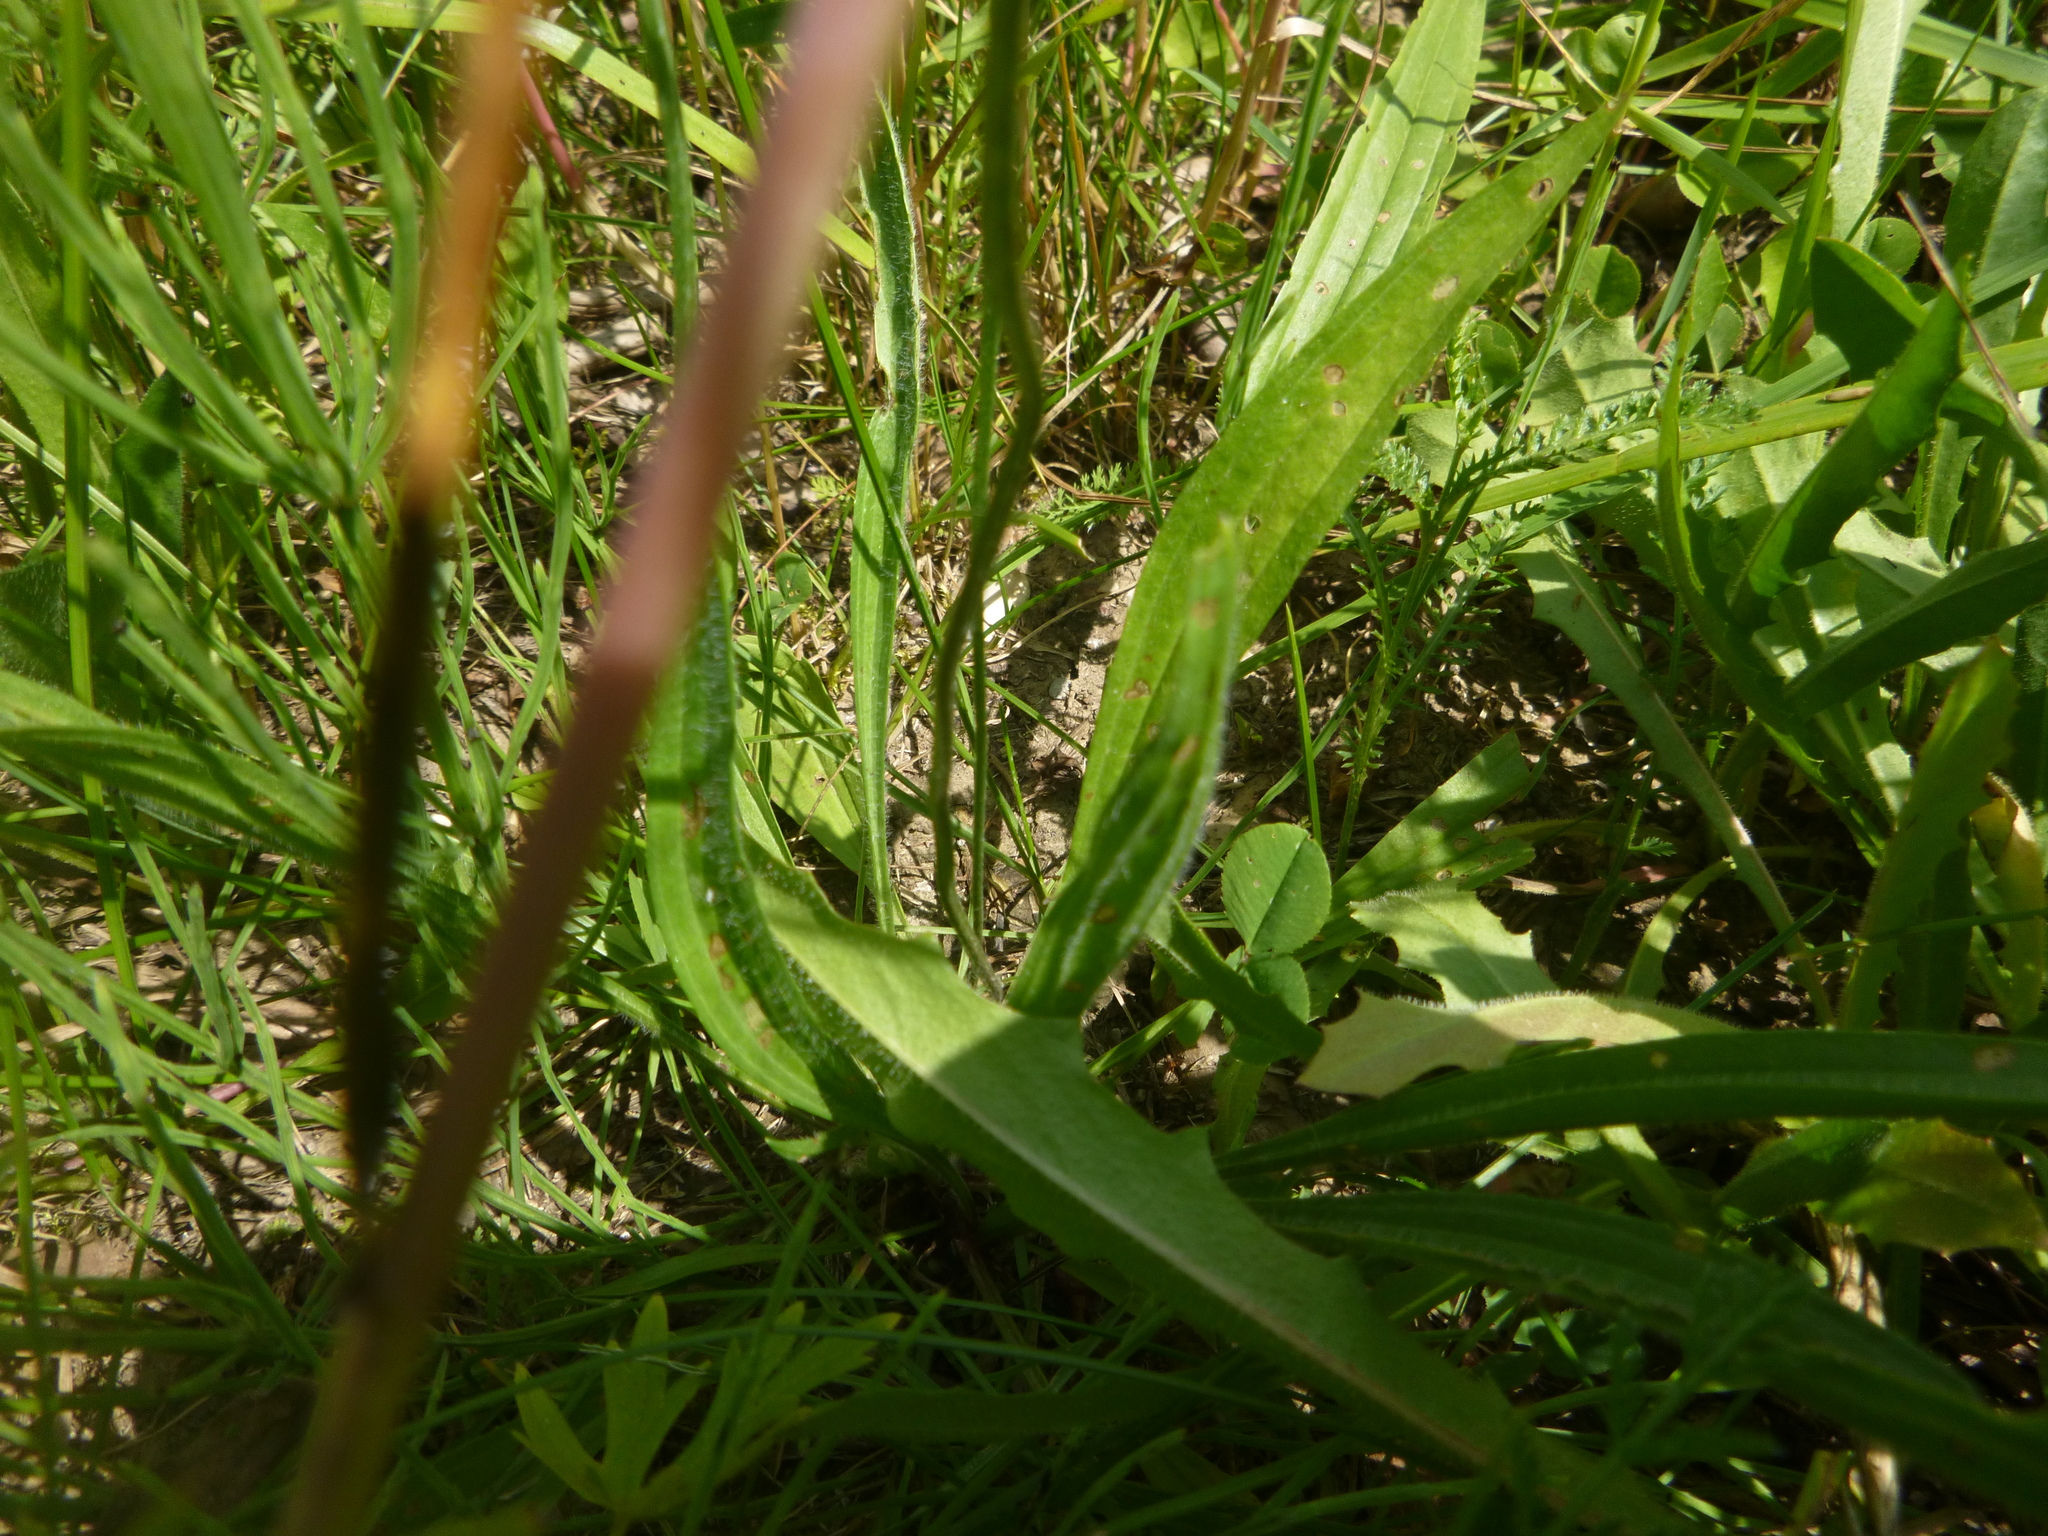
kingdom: Plantae
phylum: Tracheophyta
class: Magnoliopsida
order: Lamiales
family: Plantaginaceae
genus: Plantago
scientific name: Plantago lanceolata
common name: Ribwort plantain
